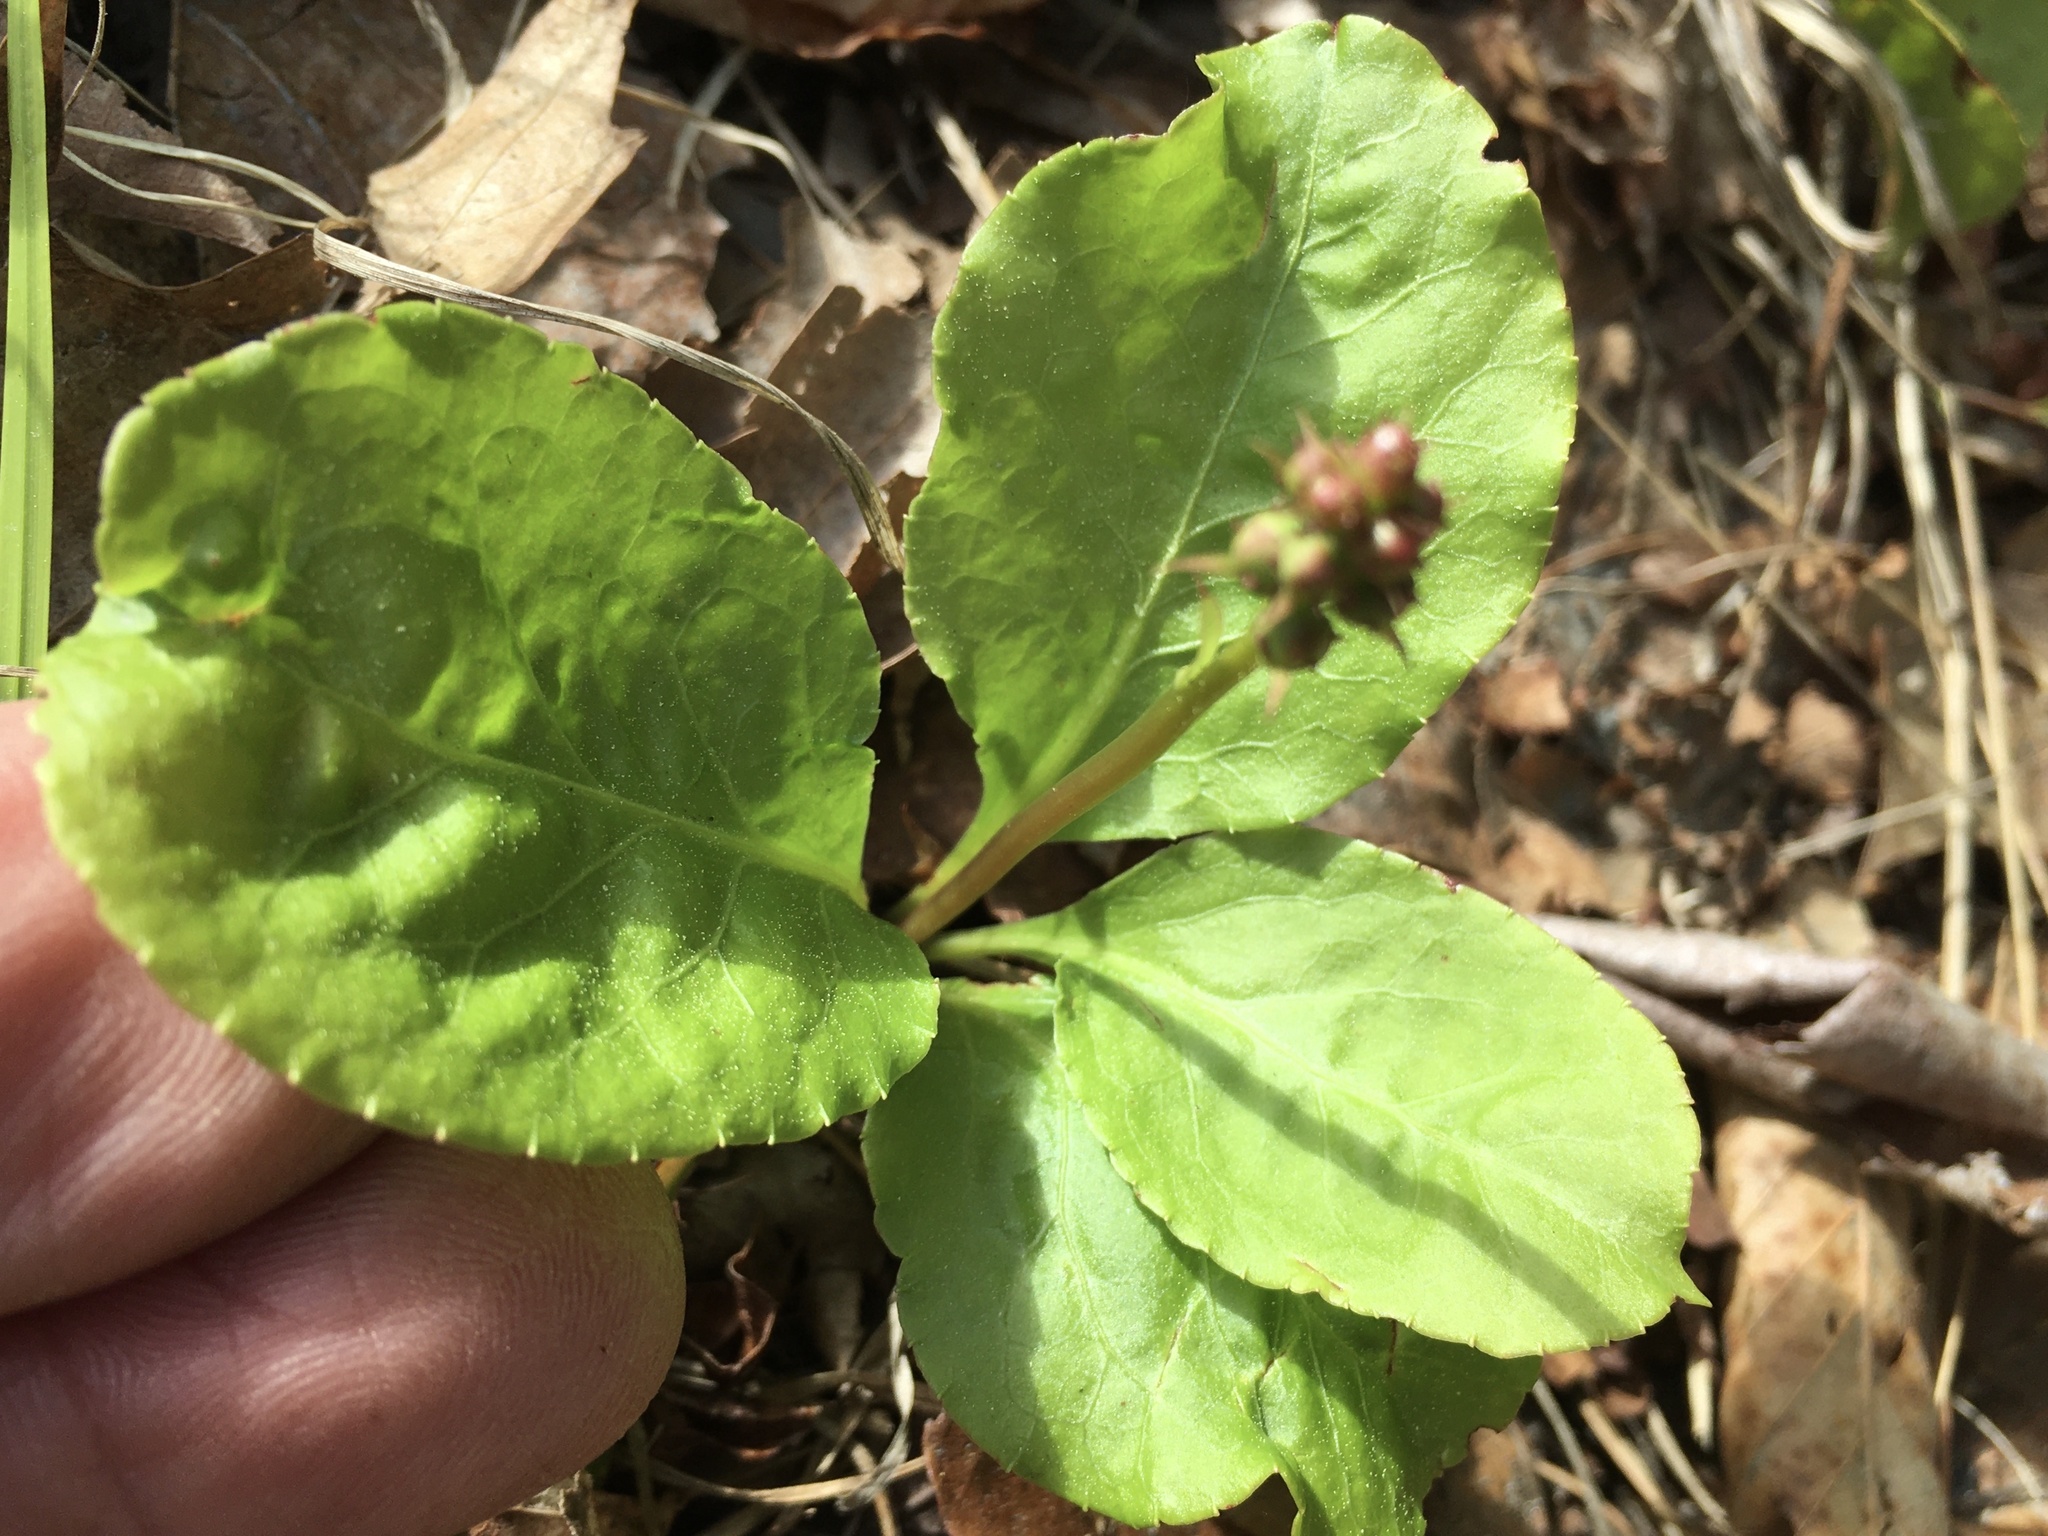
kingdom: Plantae
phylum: Tracheophyta
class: Magnoliopsida
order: Ericales
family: Ericaceae
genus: Pyrola
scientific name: Pyrola elliptica
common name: Shinleaf
